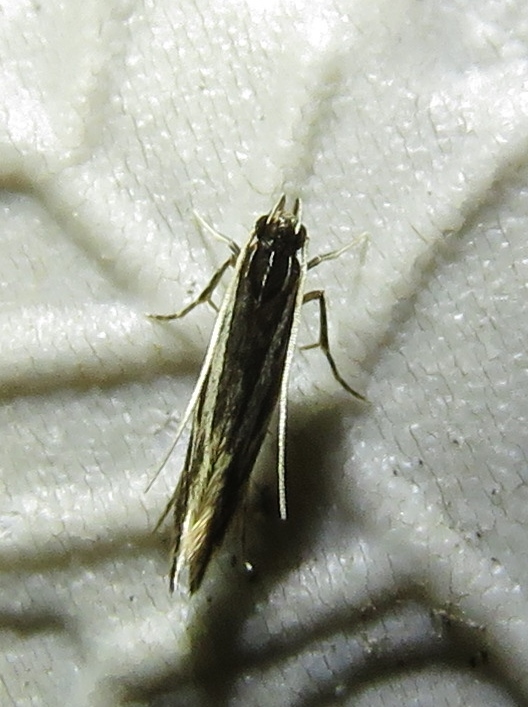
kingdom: Animalia
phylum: Arthropoda
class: Insecta
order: Lepidoptera
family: Cosmopterigidae
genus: Eralea
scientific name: Eralea albalineella
